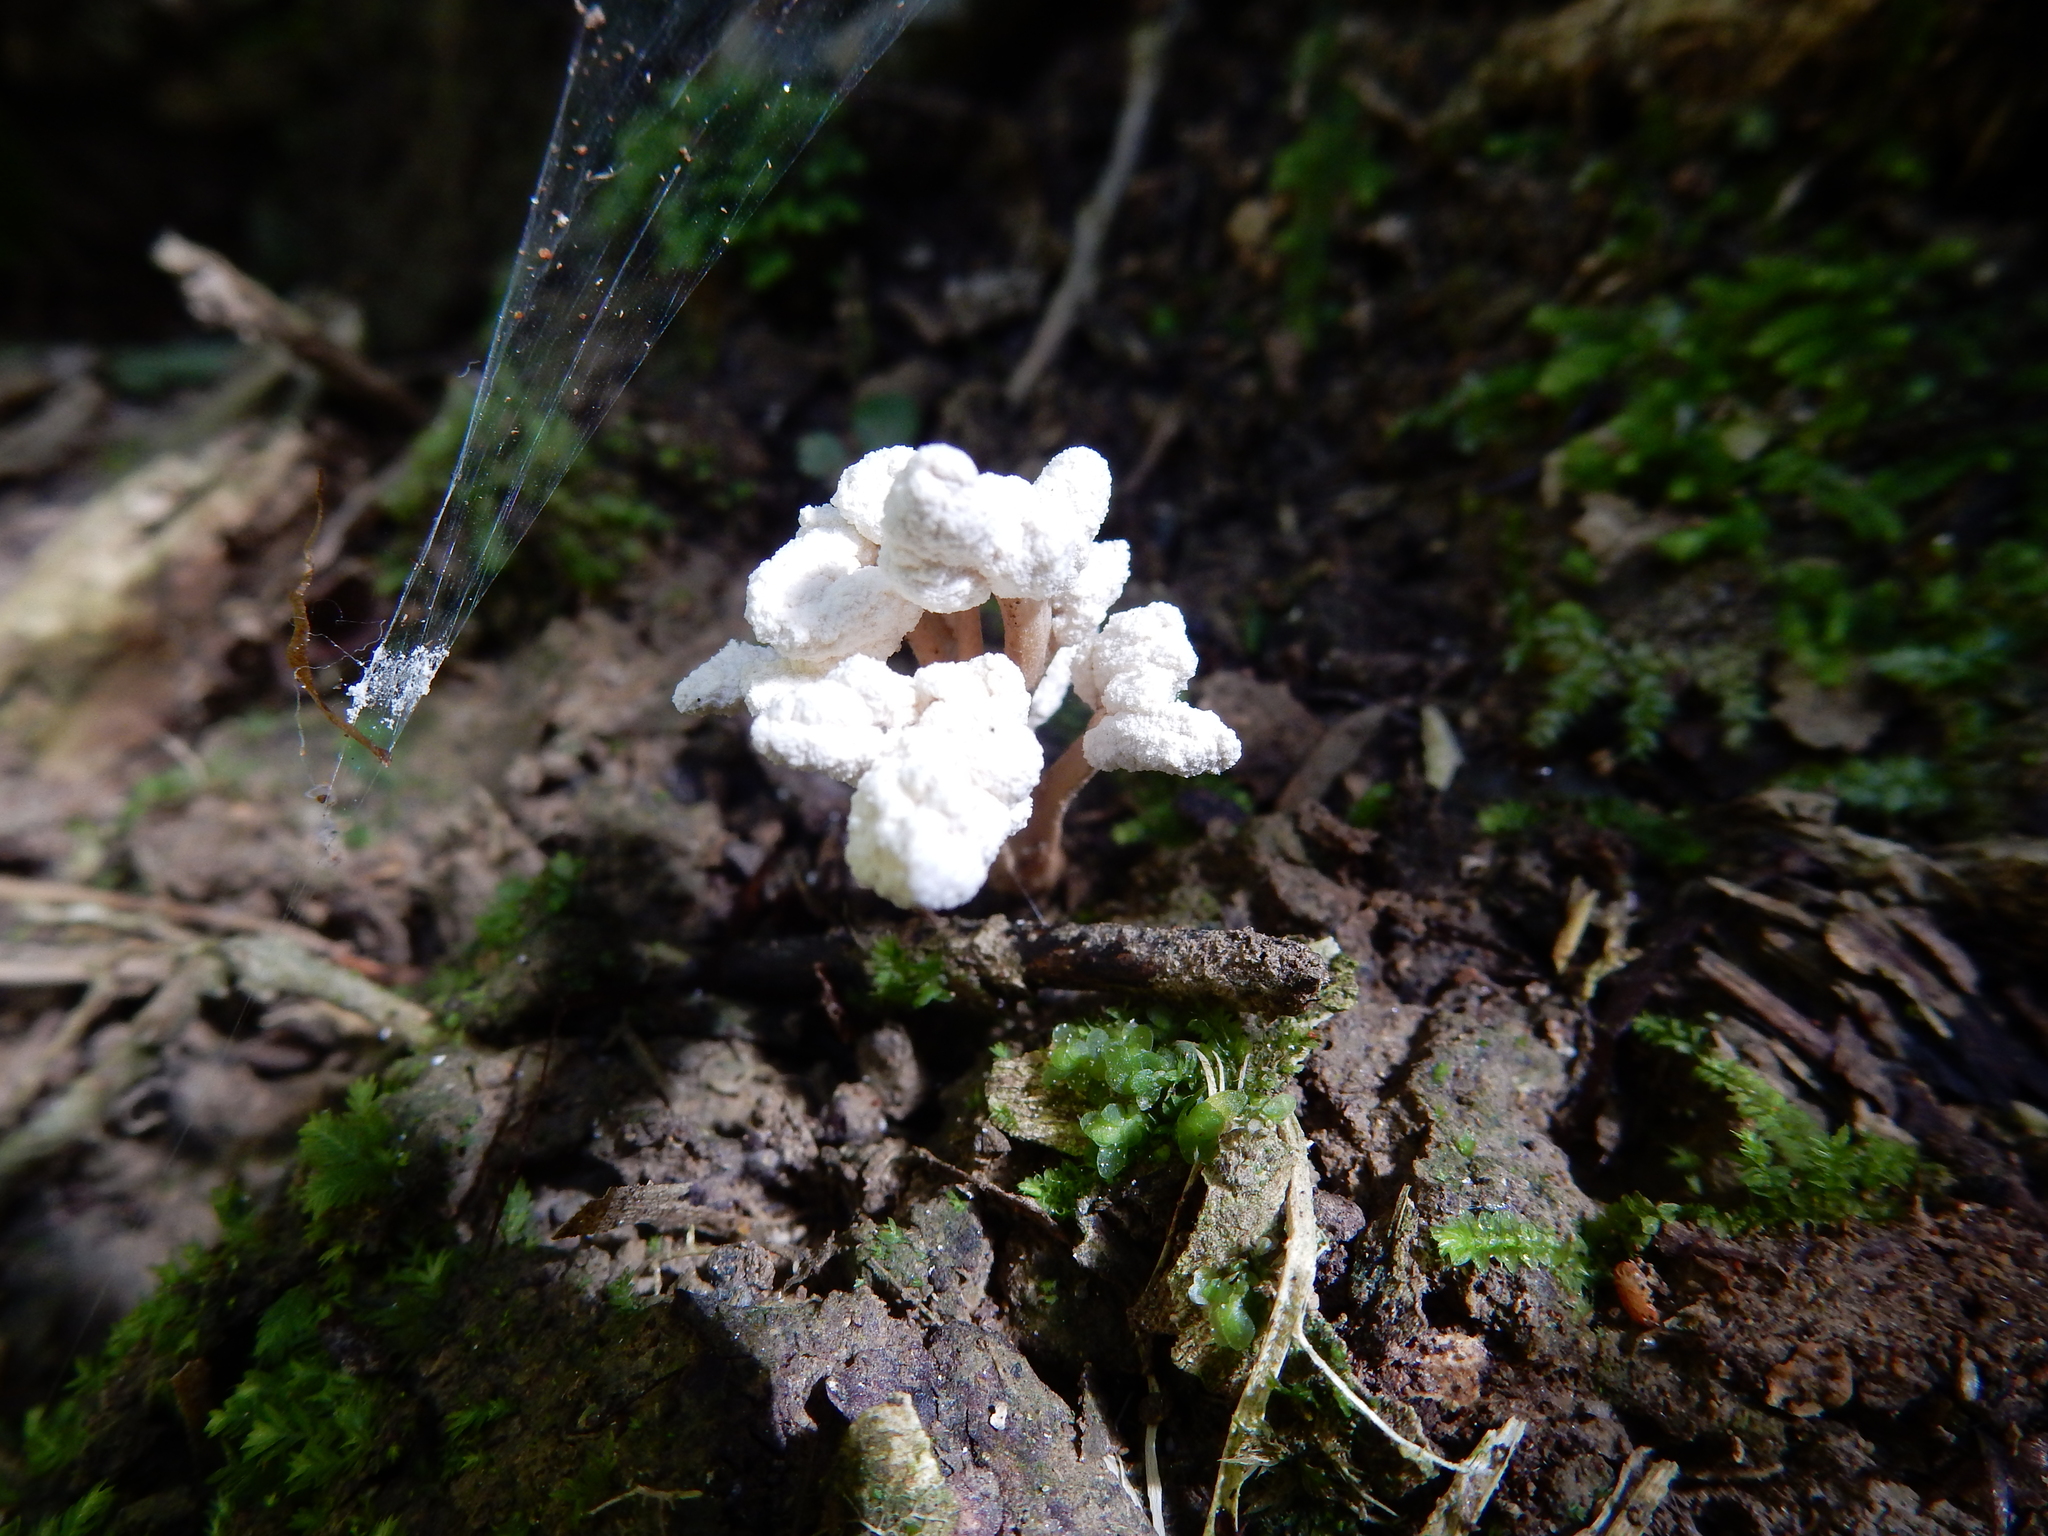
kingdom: Fungi
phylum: Ascomycota
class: Sordariomycetes
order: Hypocreales
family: Cordycipitaceae
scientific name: Cordycipitaceae
